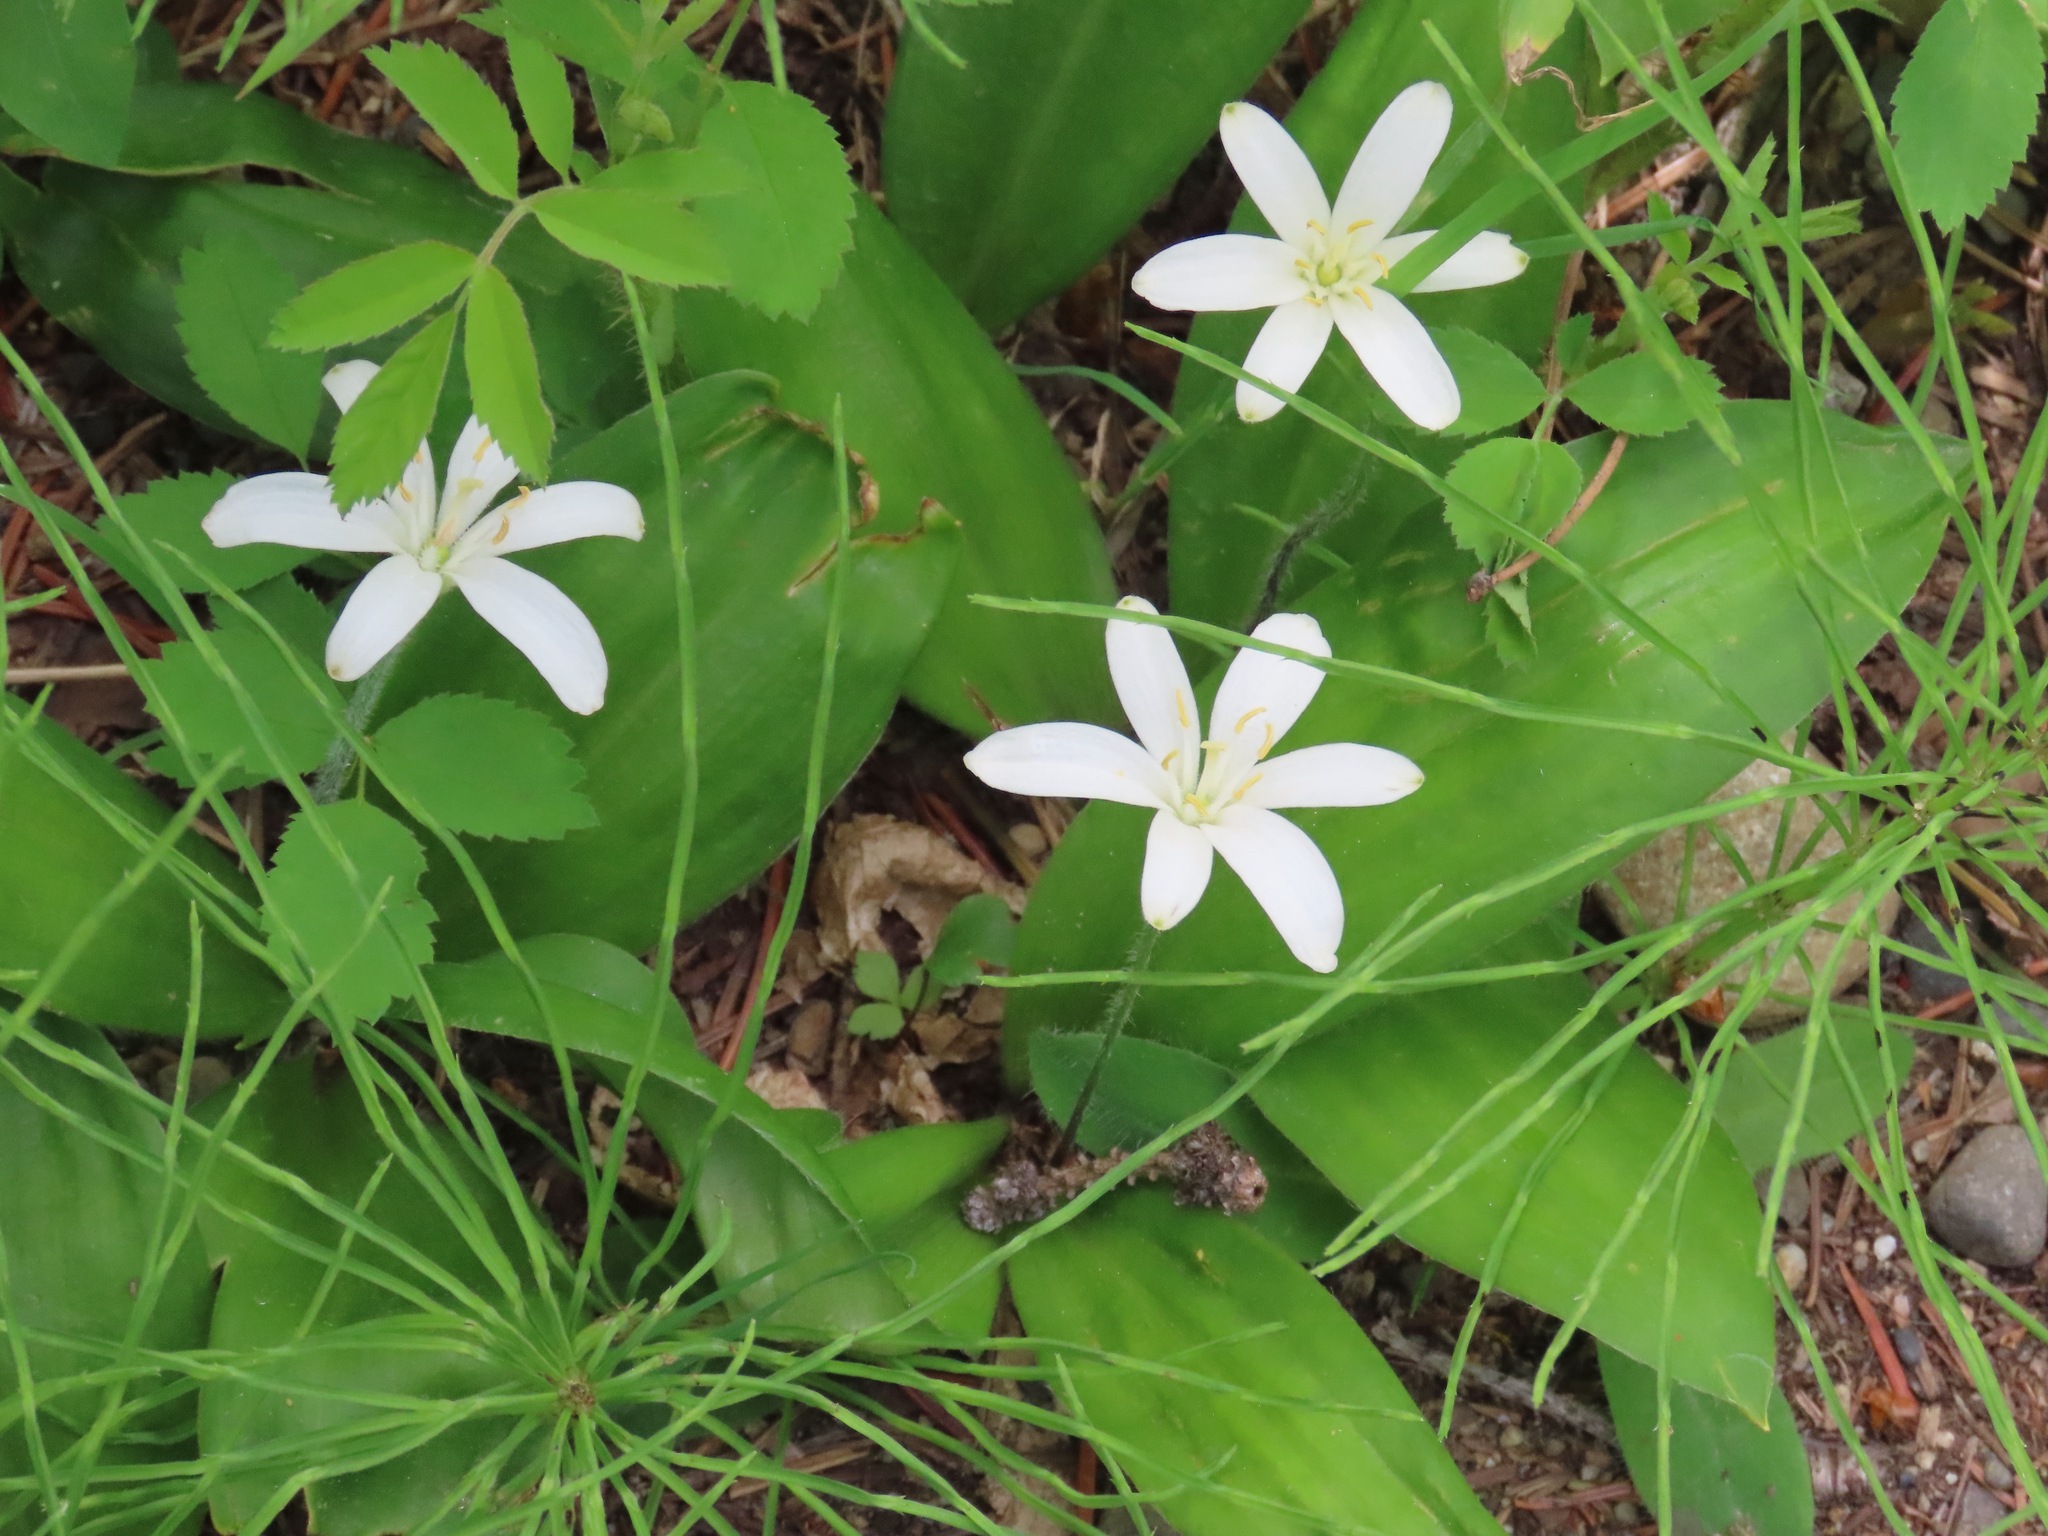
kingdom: Plantae
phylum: Tracheophyta
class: Liliopsida
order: Liliales
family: Liliaceae
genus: Clintonia
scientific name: Clintonia uniflora
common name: Queen's cup
